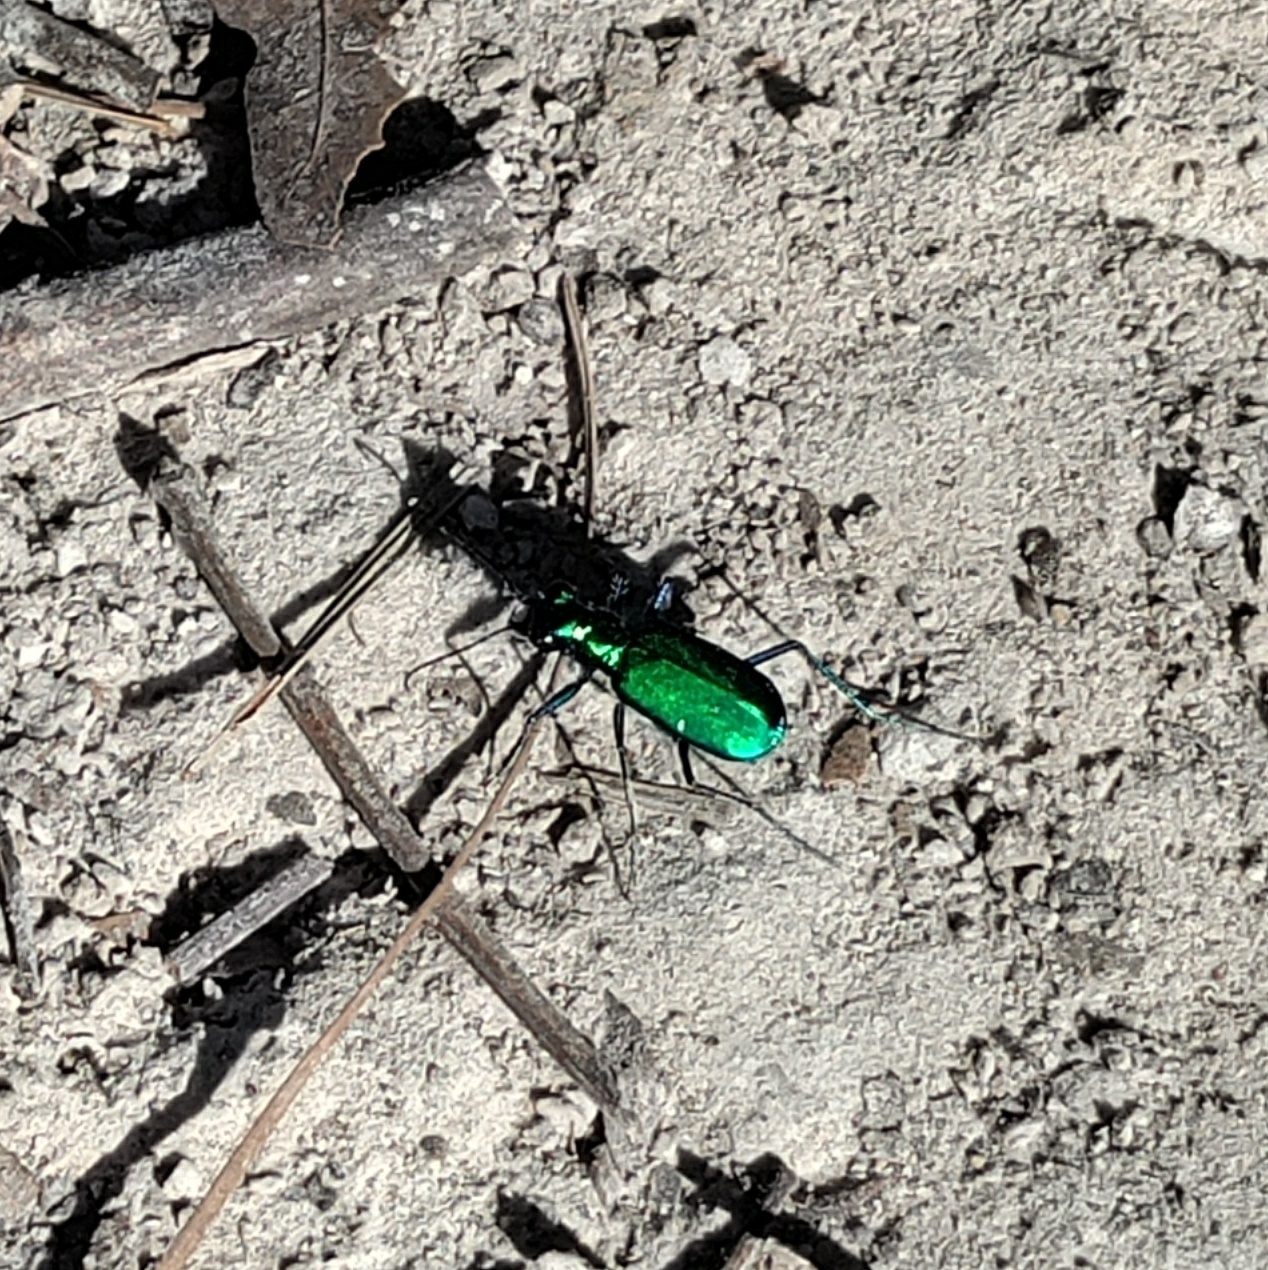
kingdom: Animalia
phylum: Arthropoda
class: Insecta
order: Coleoptera
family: Carabidae
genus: Cicindela
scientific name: Cicindela sexguttata
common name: Six-spotted tiger beetle
